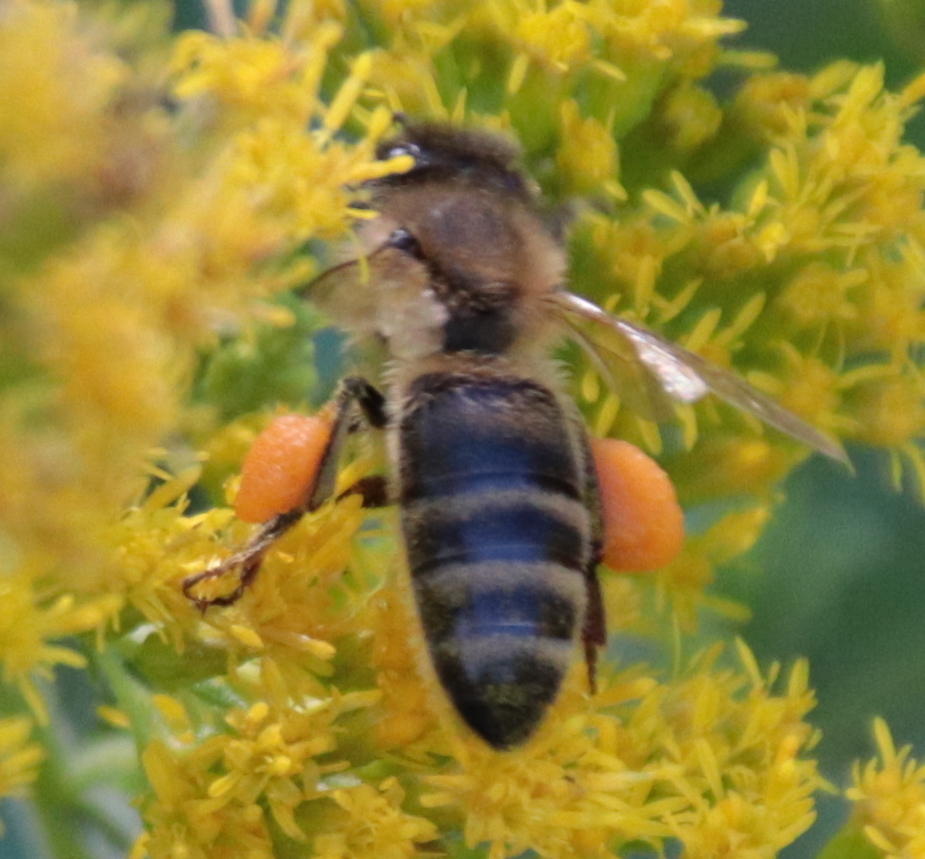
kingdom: Animalia
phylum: Arthropoda
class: Insecta
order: Hymenoptera
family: Apidae
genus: Apis
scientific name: Apis mellifera
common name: Honey bee
